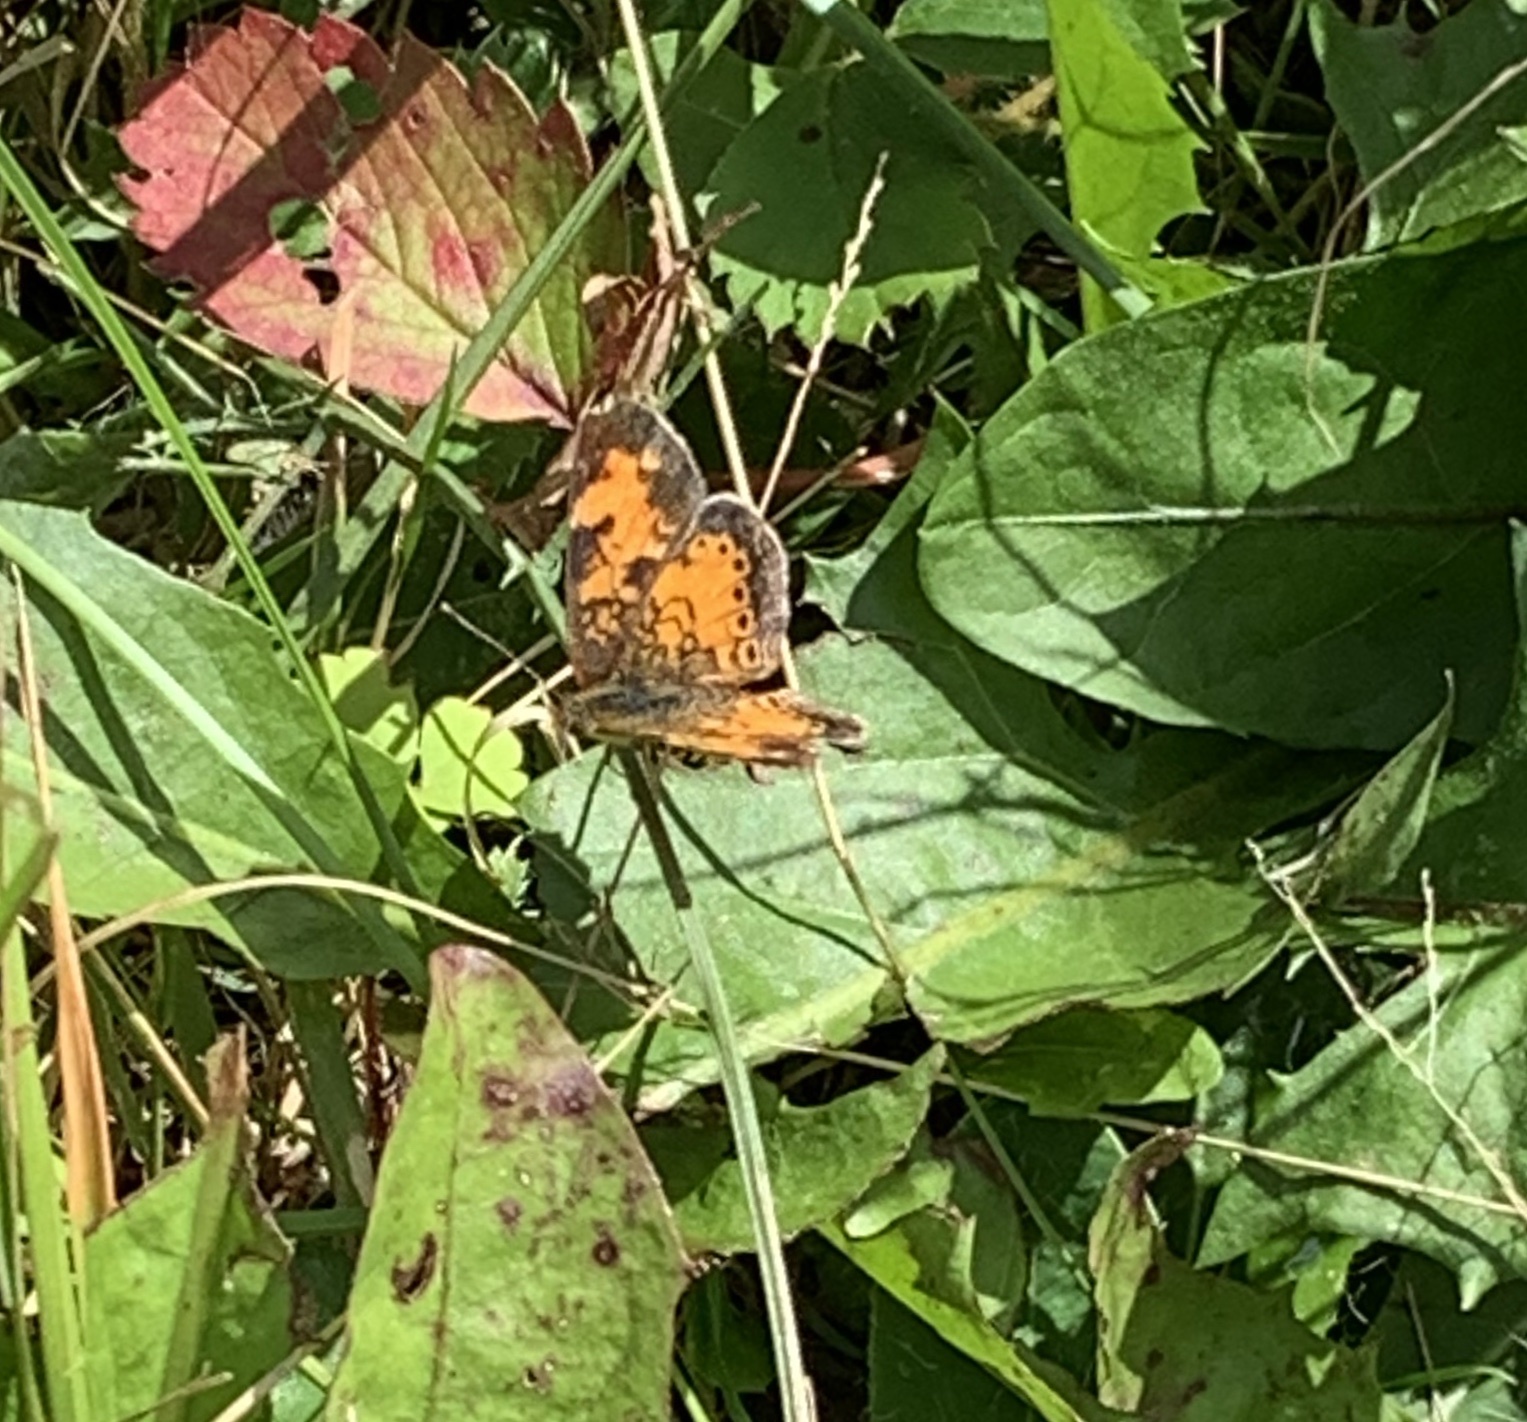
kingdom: Animalia
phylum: Arthropoda
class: Insecta
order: Lepidoptera
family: Nymphalidae
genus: Phyciodes
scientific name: Phyciodes tharos
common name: Pearl crescent
